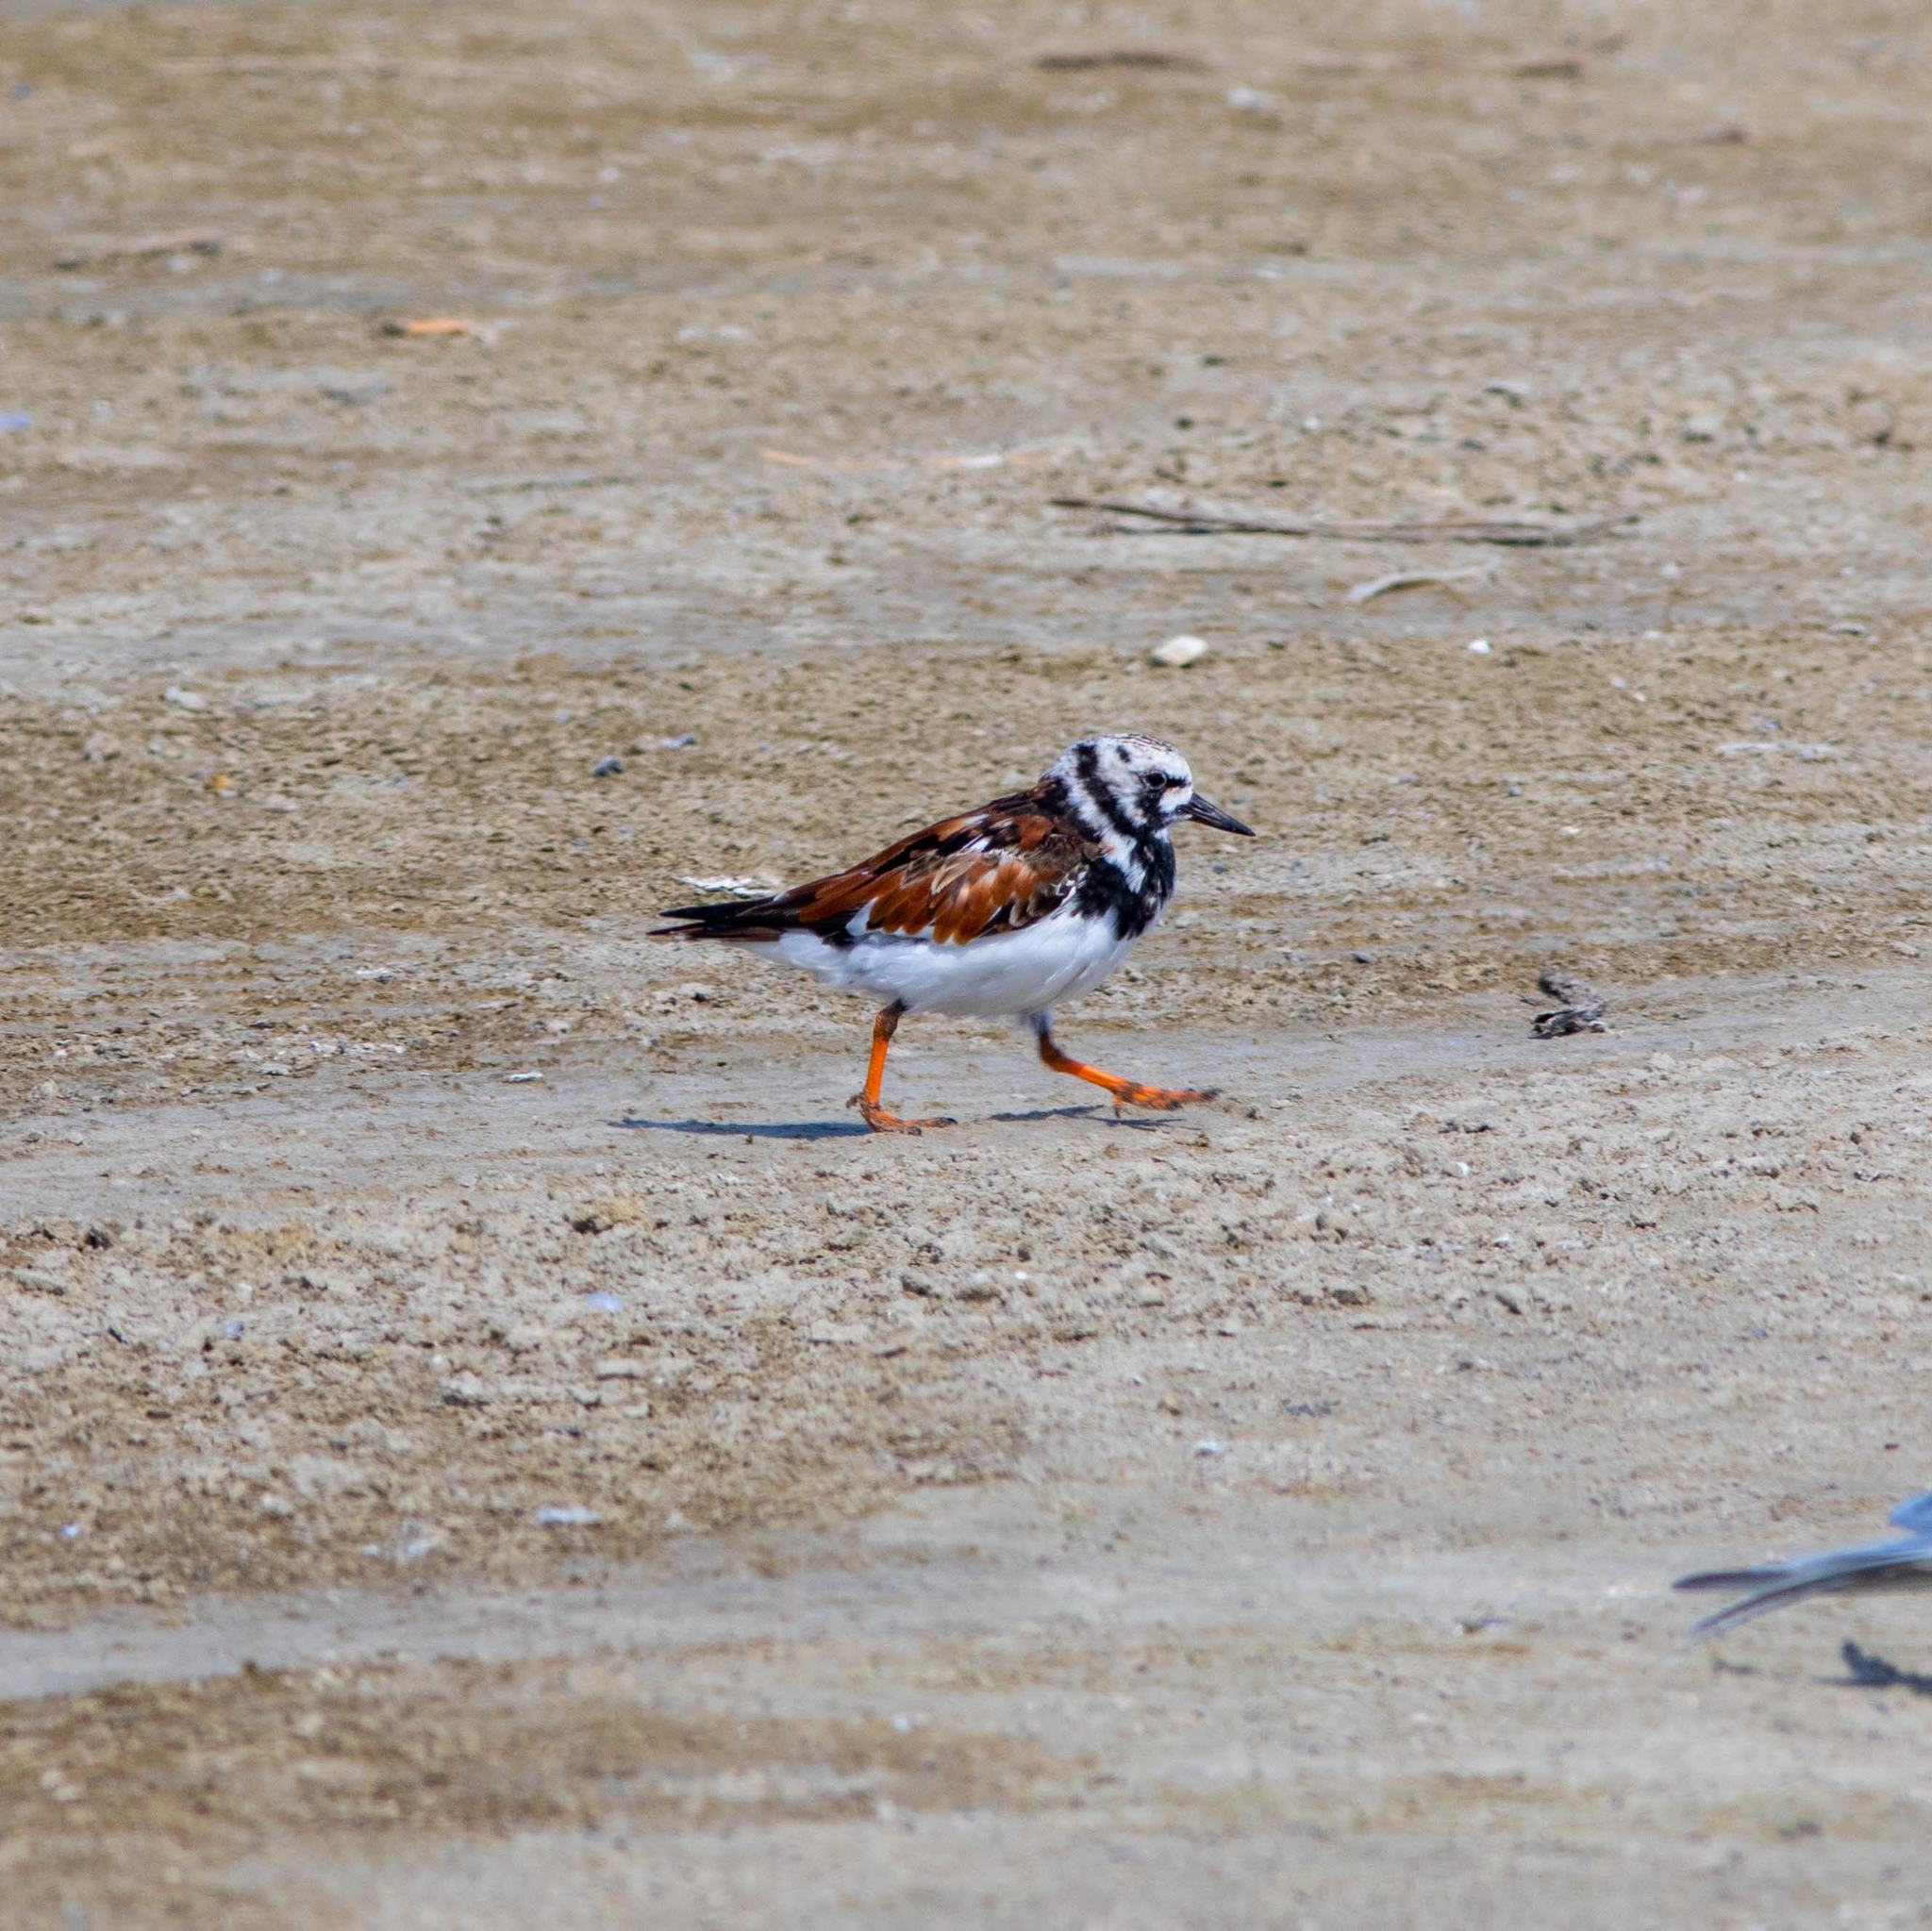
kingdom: Animalia
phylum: Chordata
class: Aves
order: Charadriiformes
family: Scolopacidae
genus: Arenaria
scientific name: Arenaria interpres
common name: Ruddy turnstone
